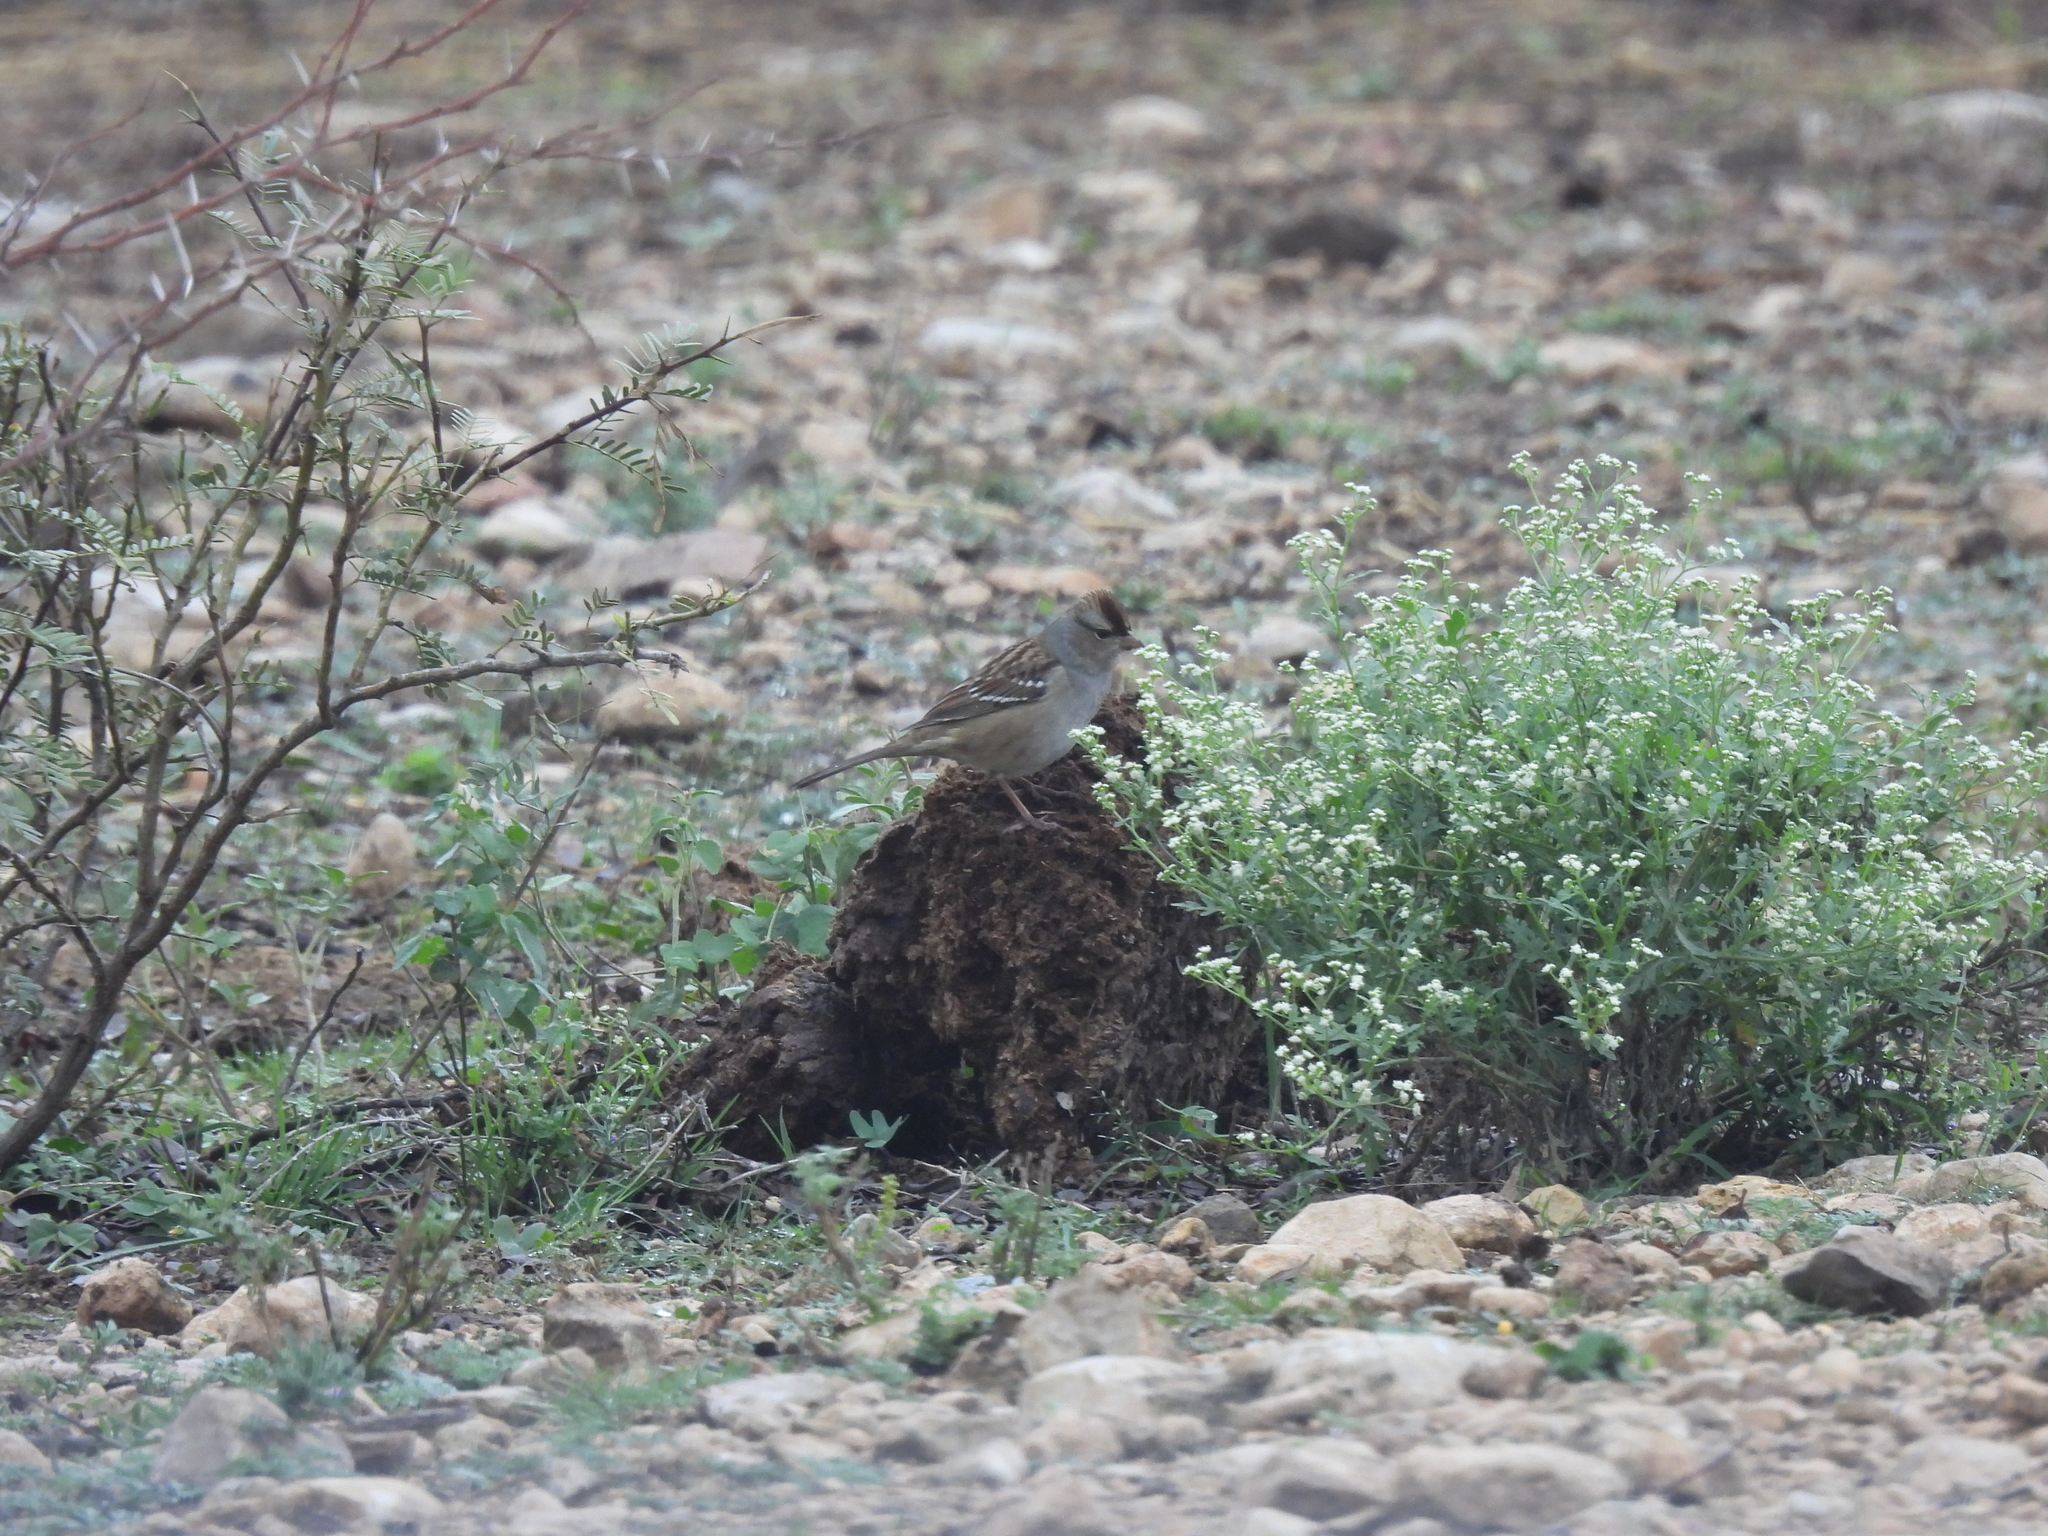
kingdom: Animalia
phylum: Chordata
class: Aves
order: Passeriformes
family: Passerellidae
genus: Zonotrichia
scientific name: Zonotrichia leucophrys
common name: White-crowned sparrow
